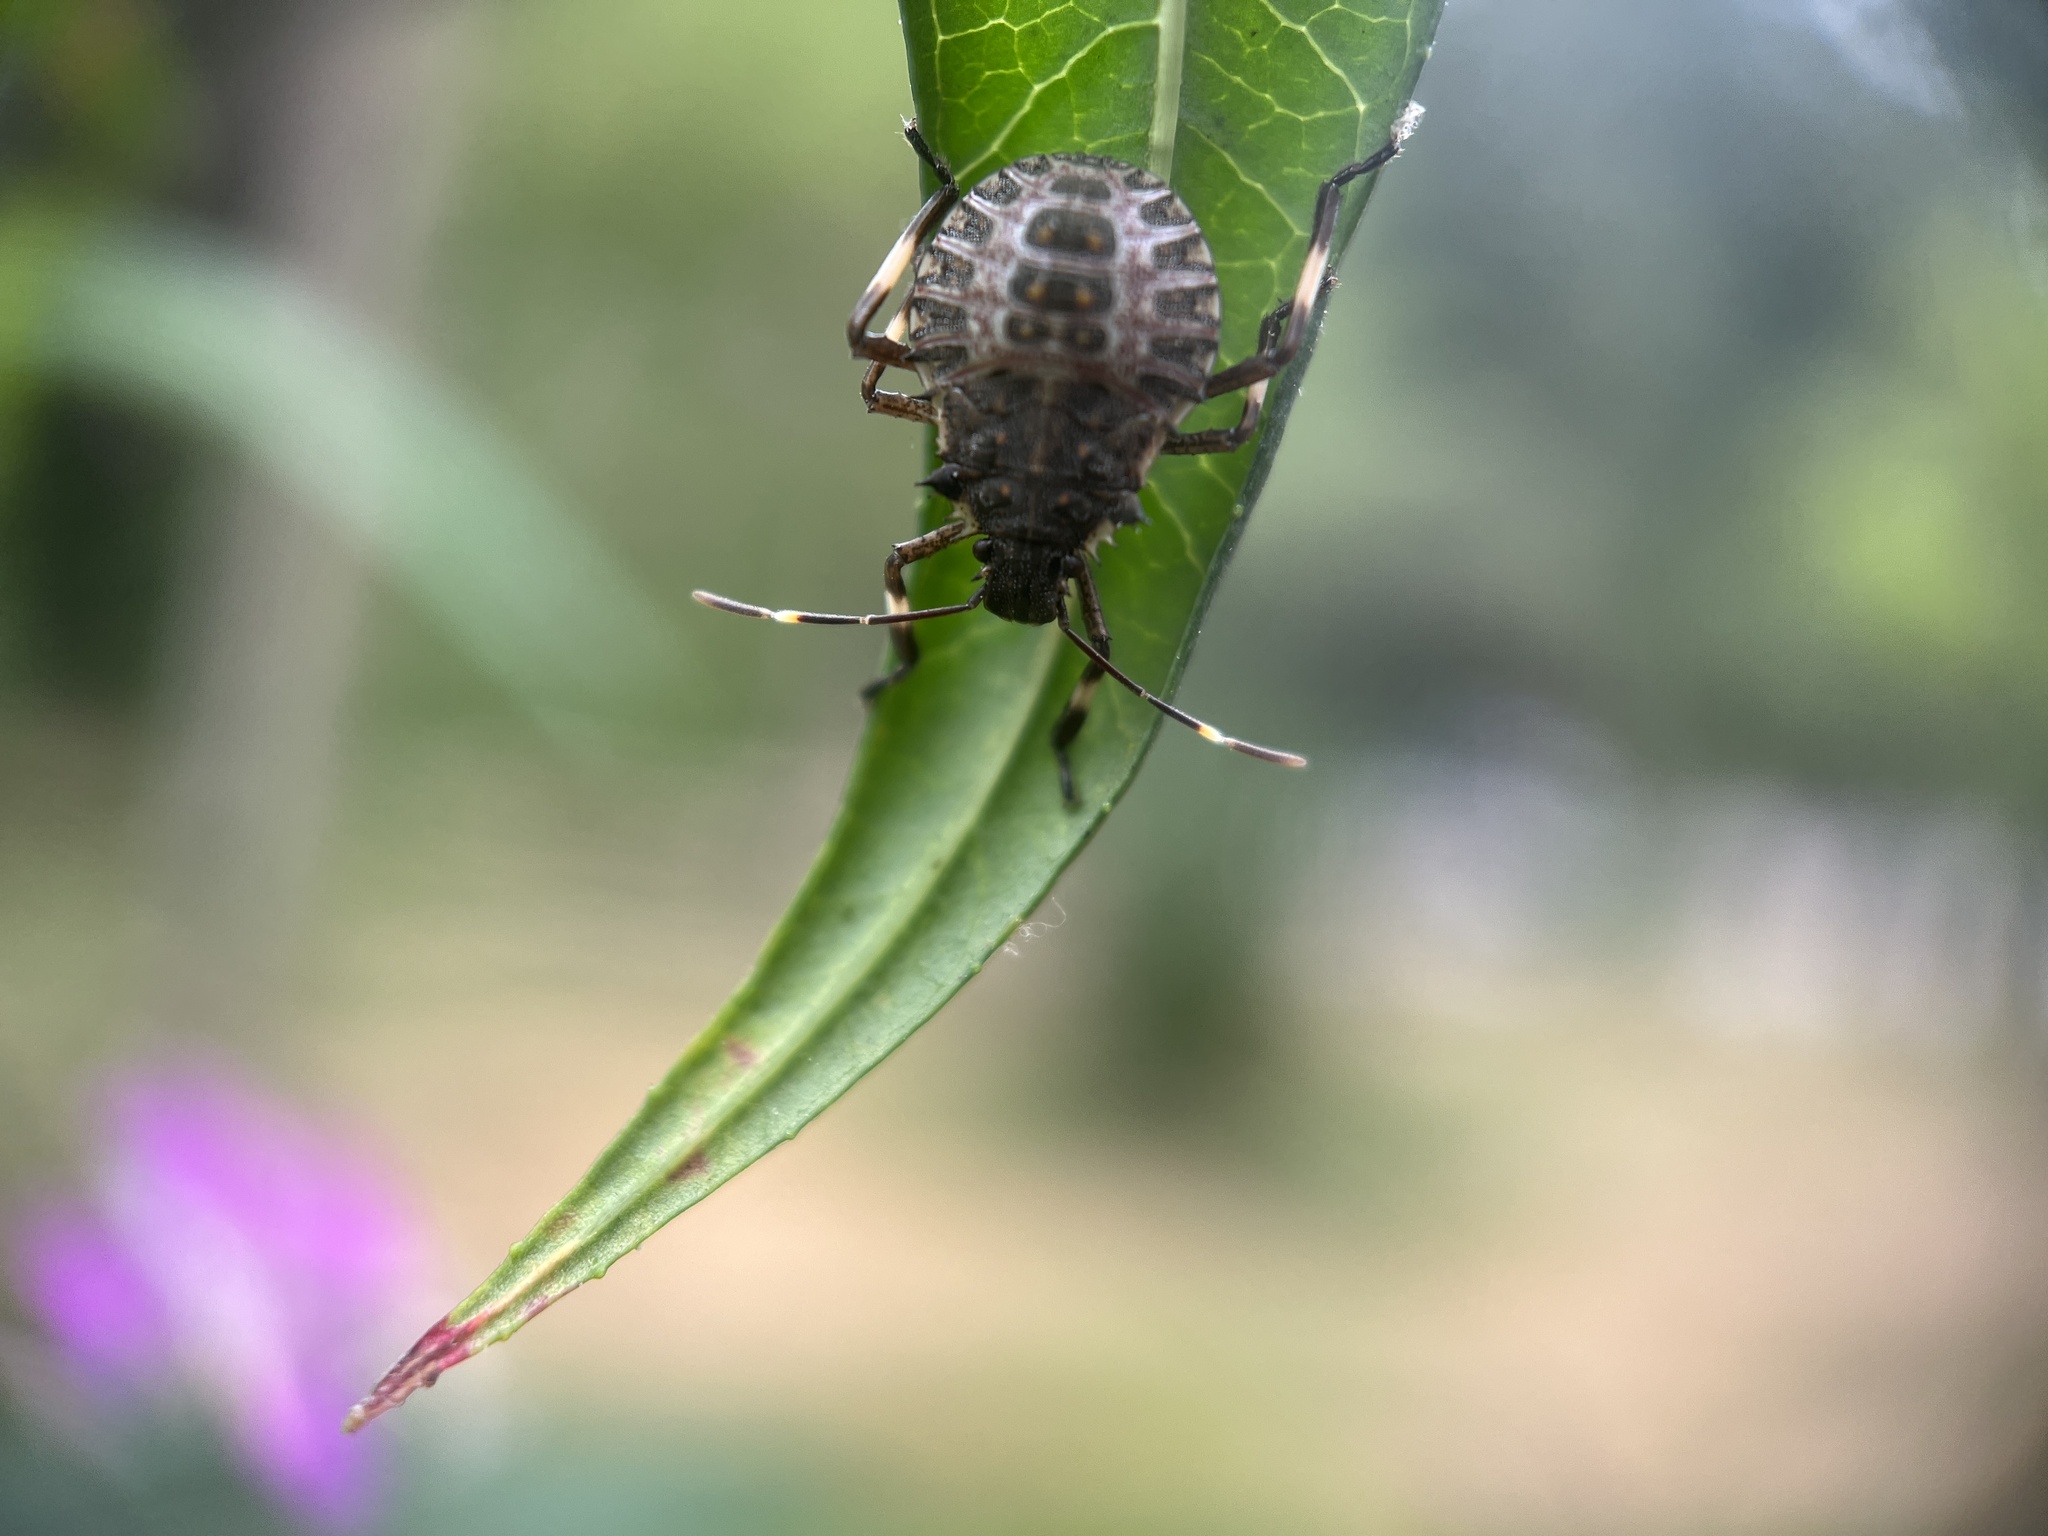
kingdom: Animalia
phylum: Arthropoda
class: Insecta
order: Hemiptera
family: Pentatomidae
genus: Halyomorpha
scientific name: Halyomorpha halys
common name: Brown marmorated stink bug
